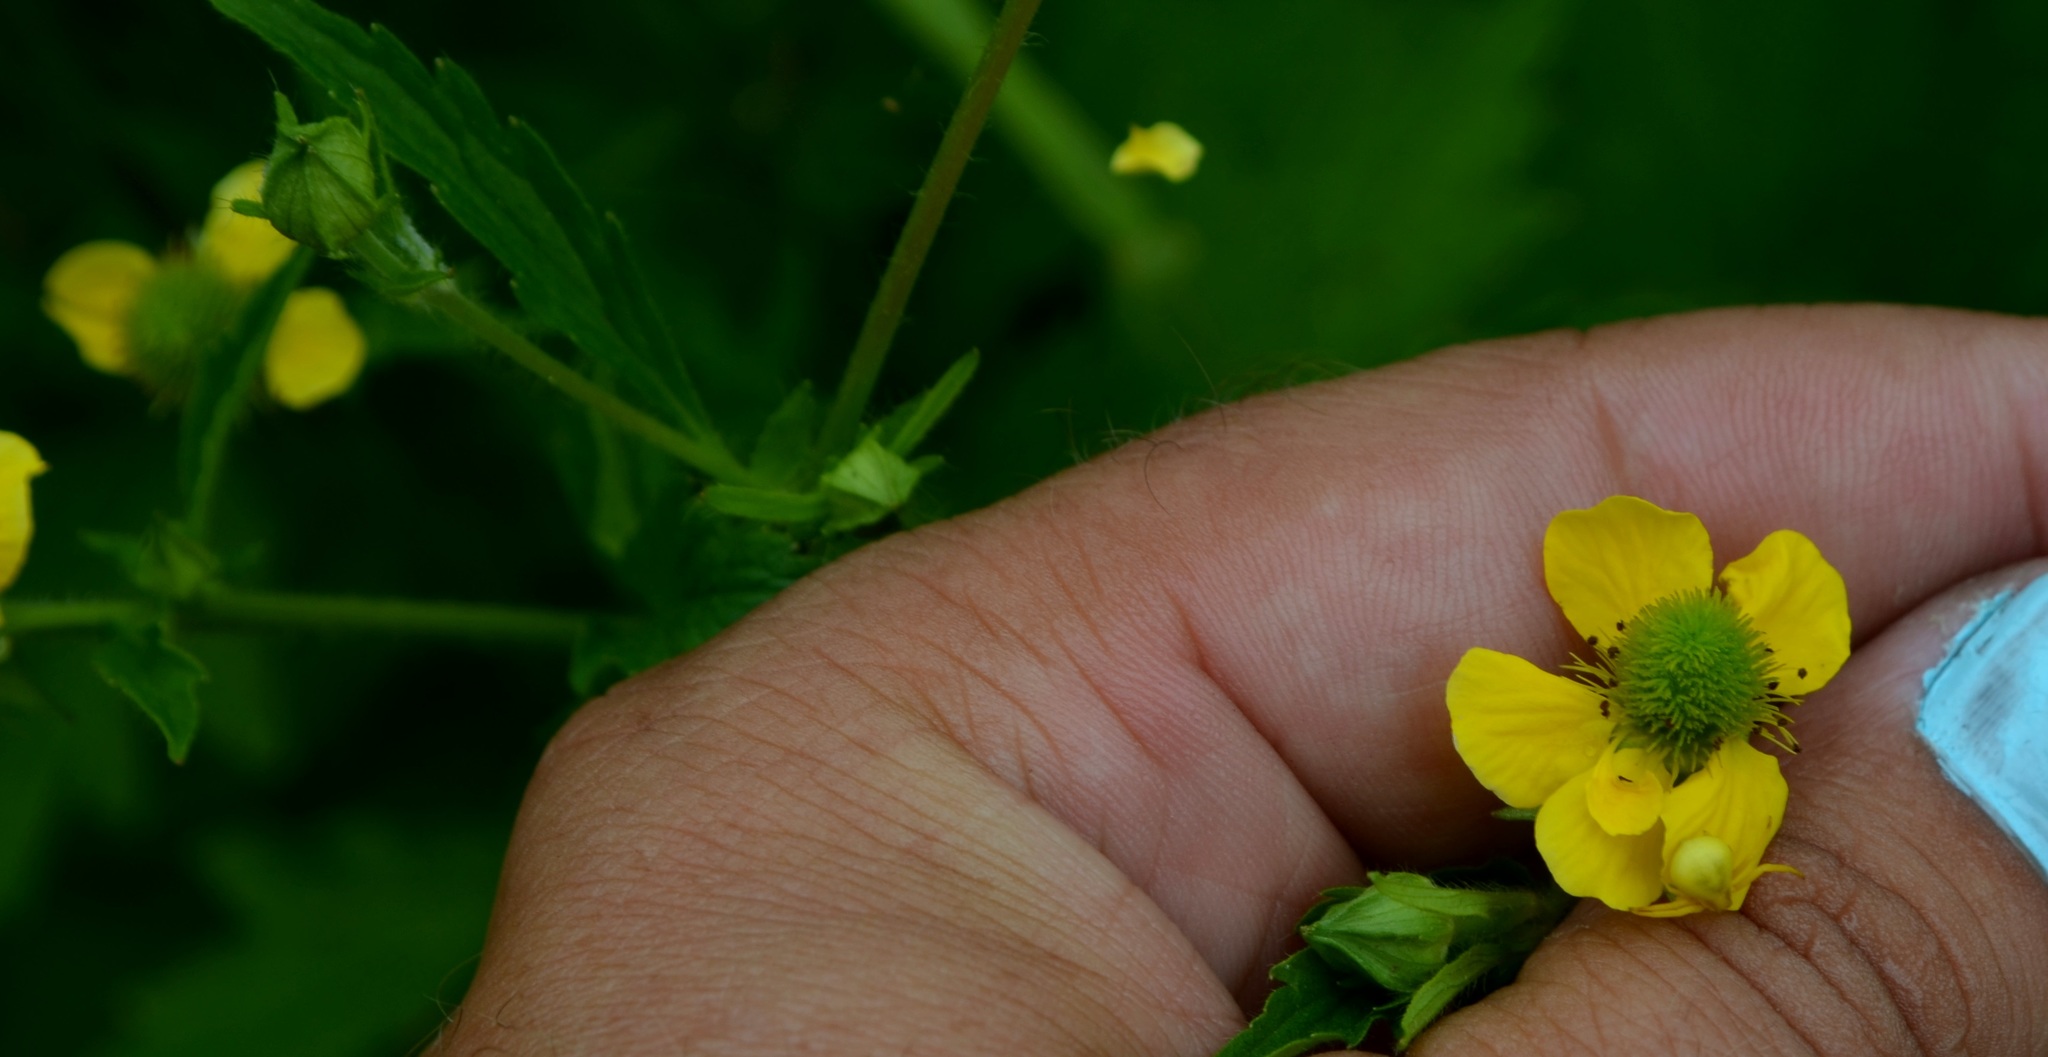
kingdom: Plantae
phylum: Tracheophyta
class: Magnoliopsida
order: Rosales
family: Rosaceae
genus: Geum
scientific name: Geum aleppicum
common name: Yellow avens
